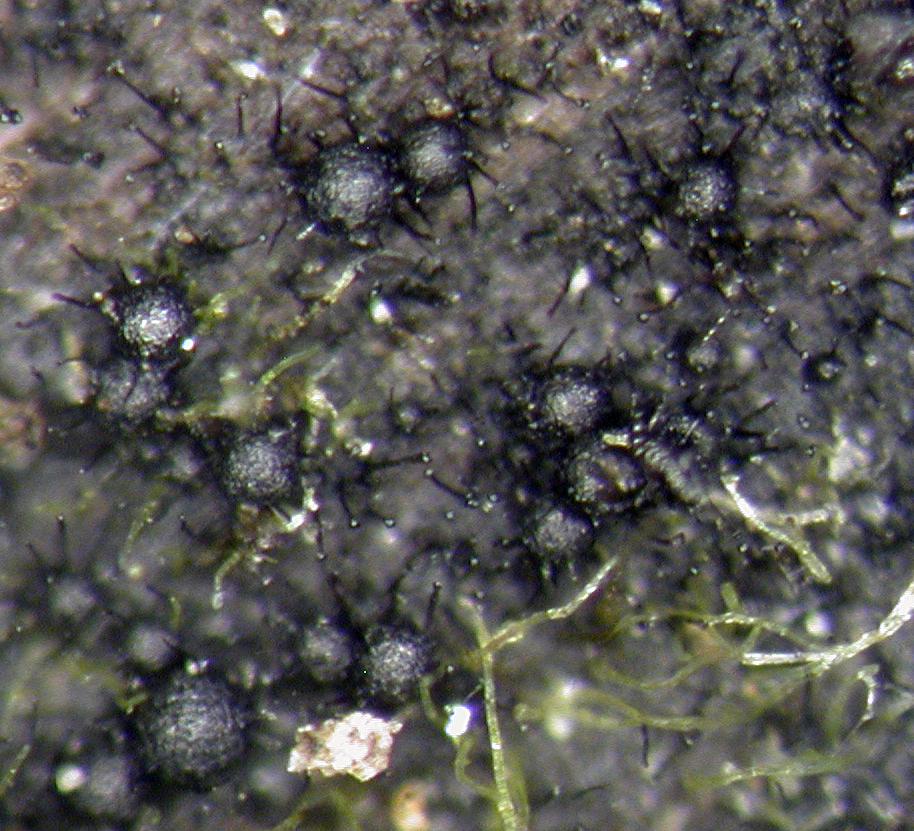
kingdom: Fungi
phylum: Ascomycota
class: Sordariomycetes
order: Chaetosphaeriales
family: Chaetosphaeriaceae
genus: Catenularia
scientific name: Catenularia novae-zelandiae
